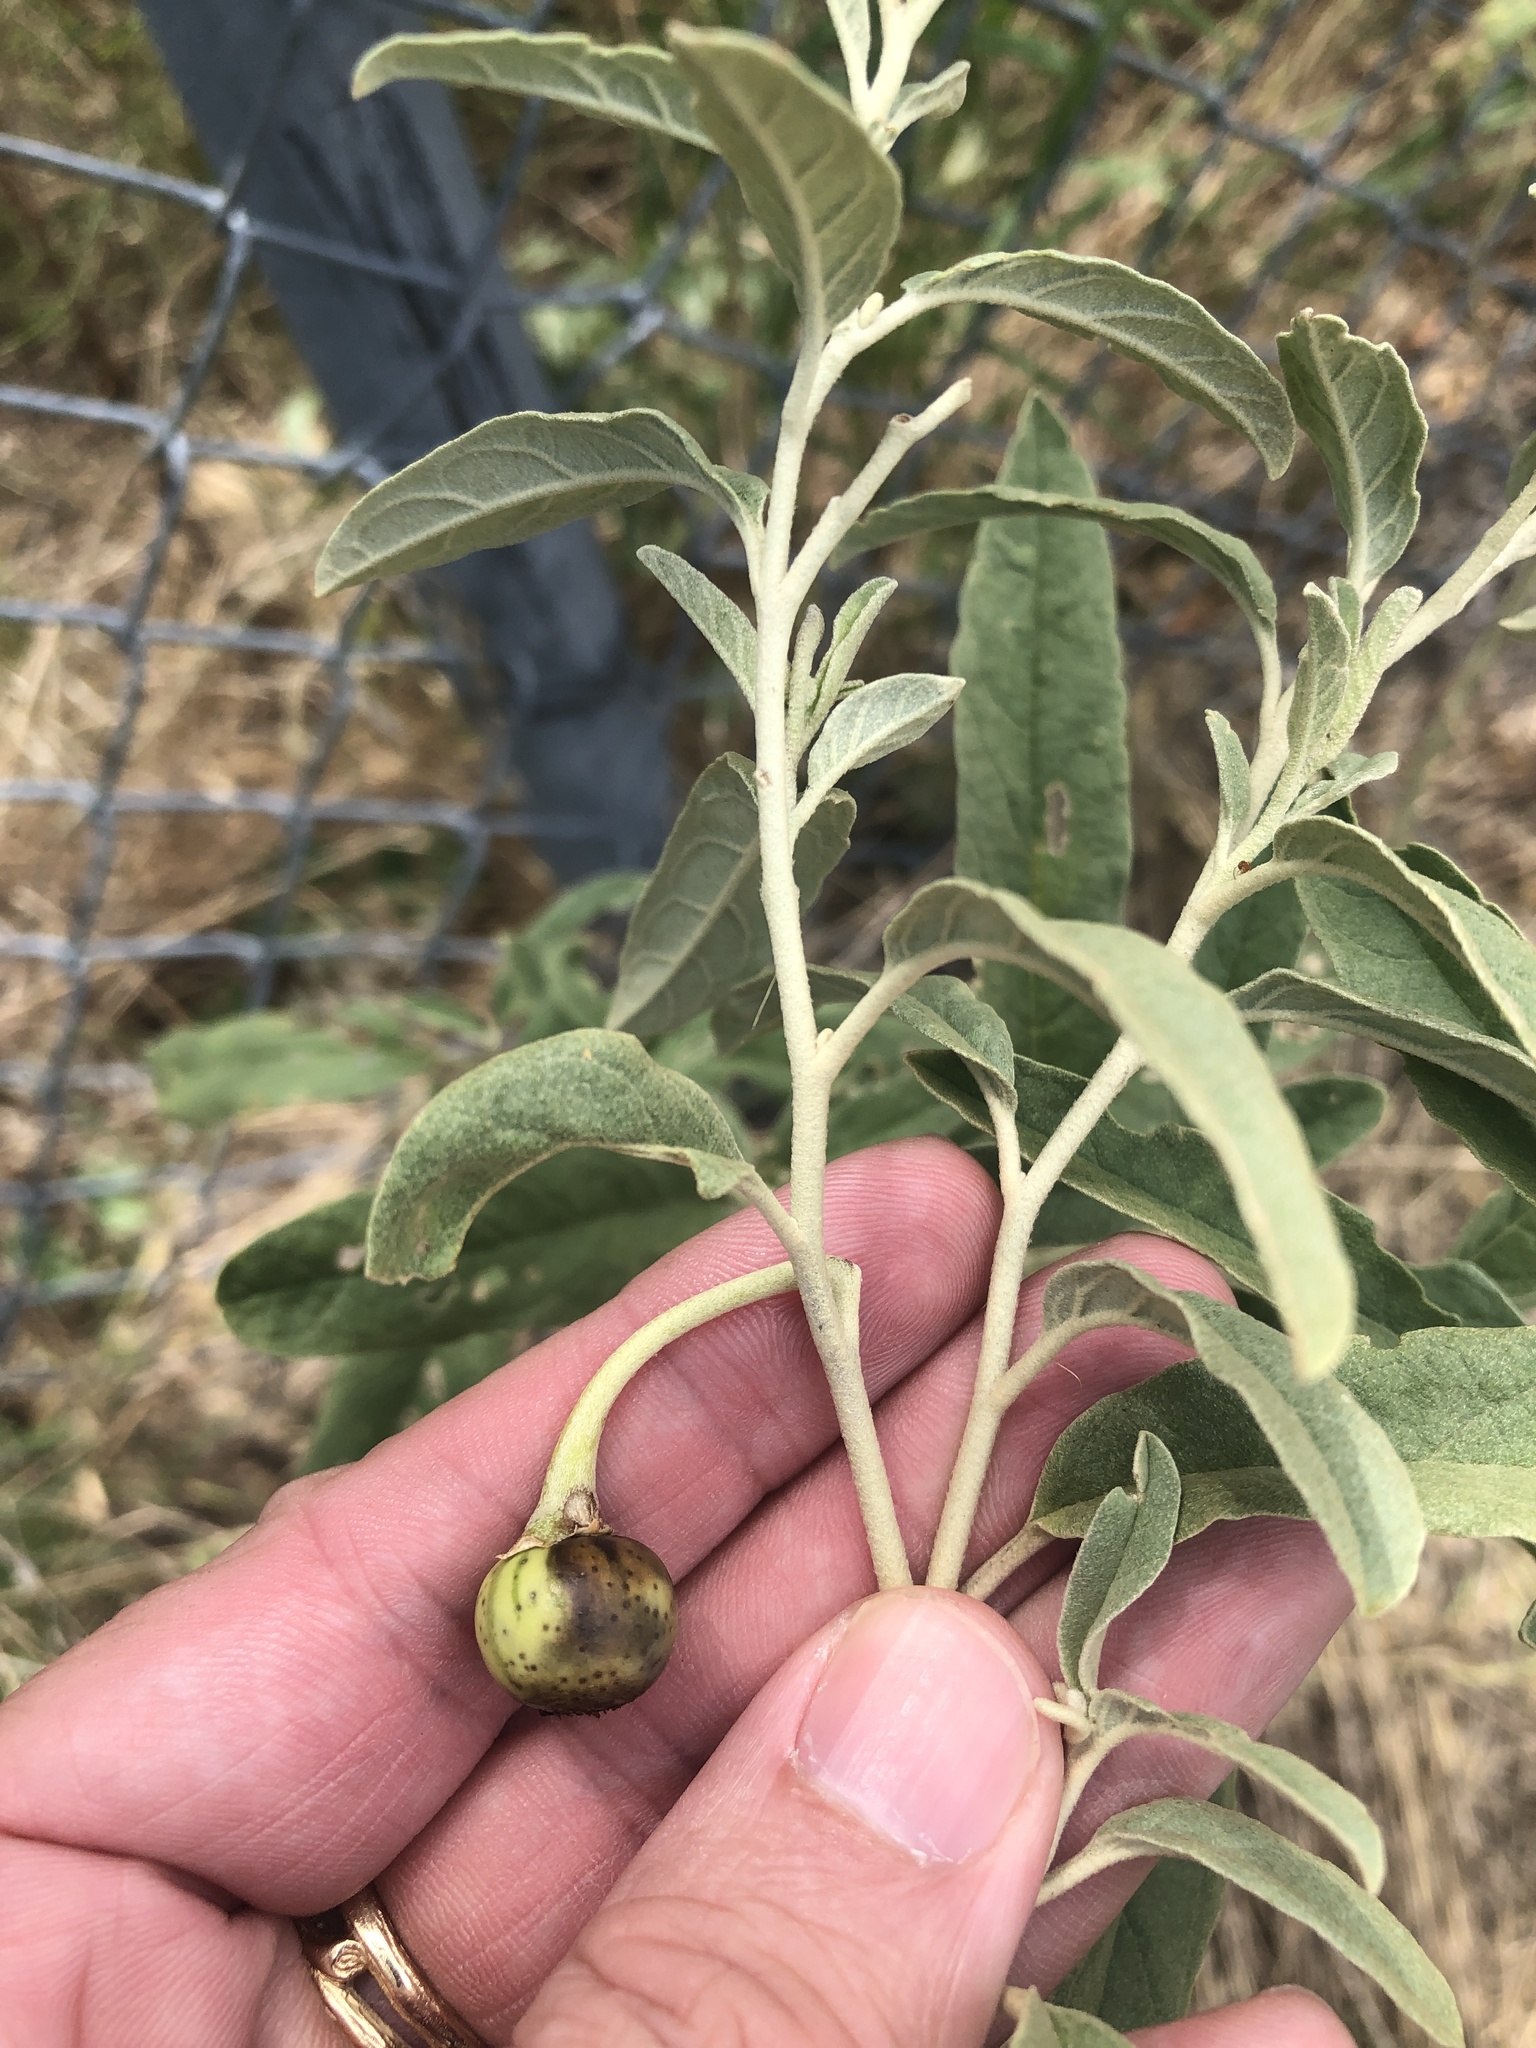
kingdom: Plantae
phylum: Tracheophyta
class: Magnoliopsida
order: Solanales
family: Solanaceae
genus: Solanum
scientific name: Solanum elaeagnifolium
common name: Silverleaf nightshade
